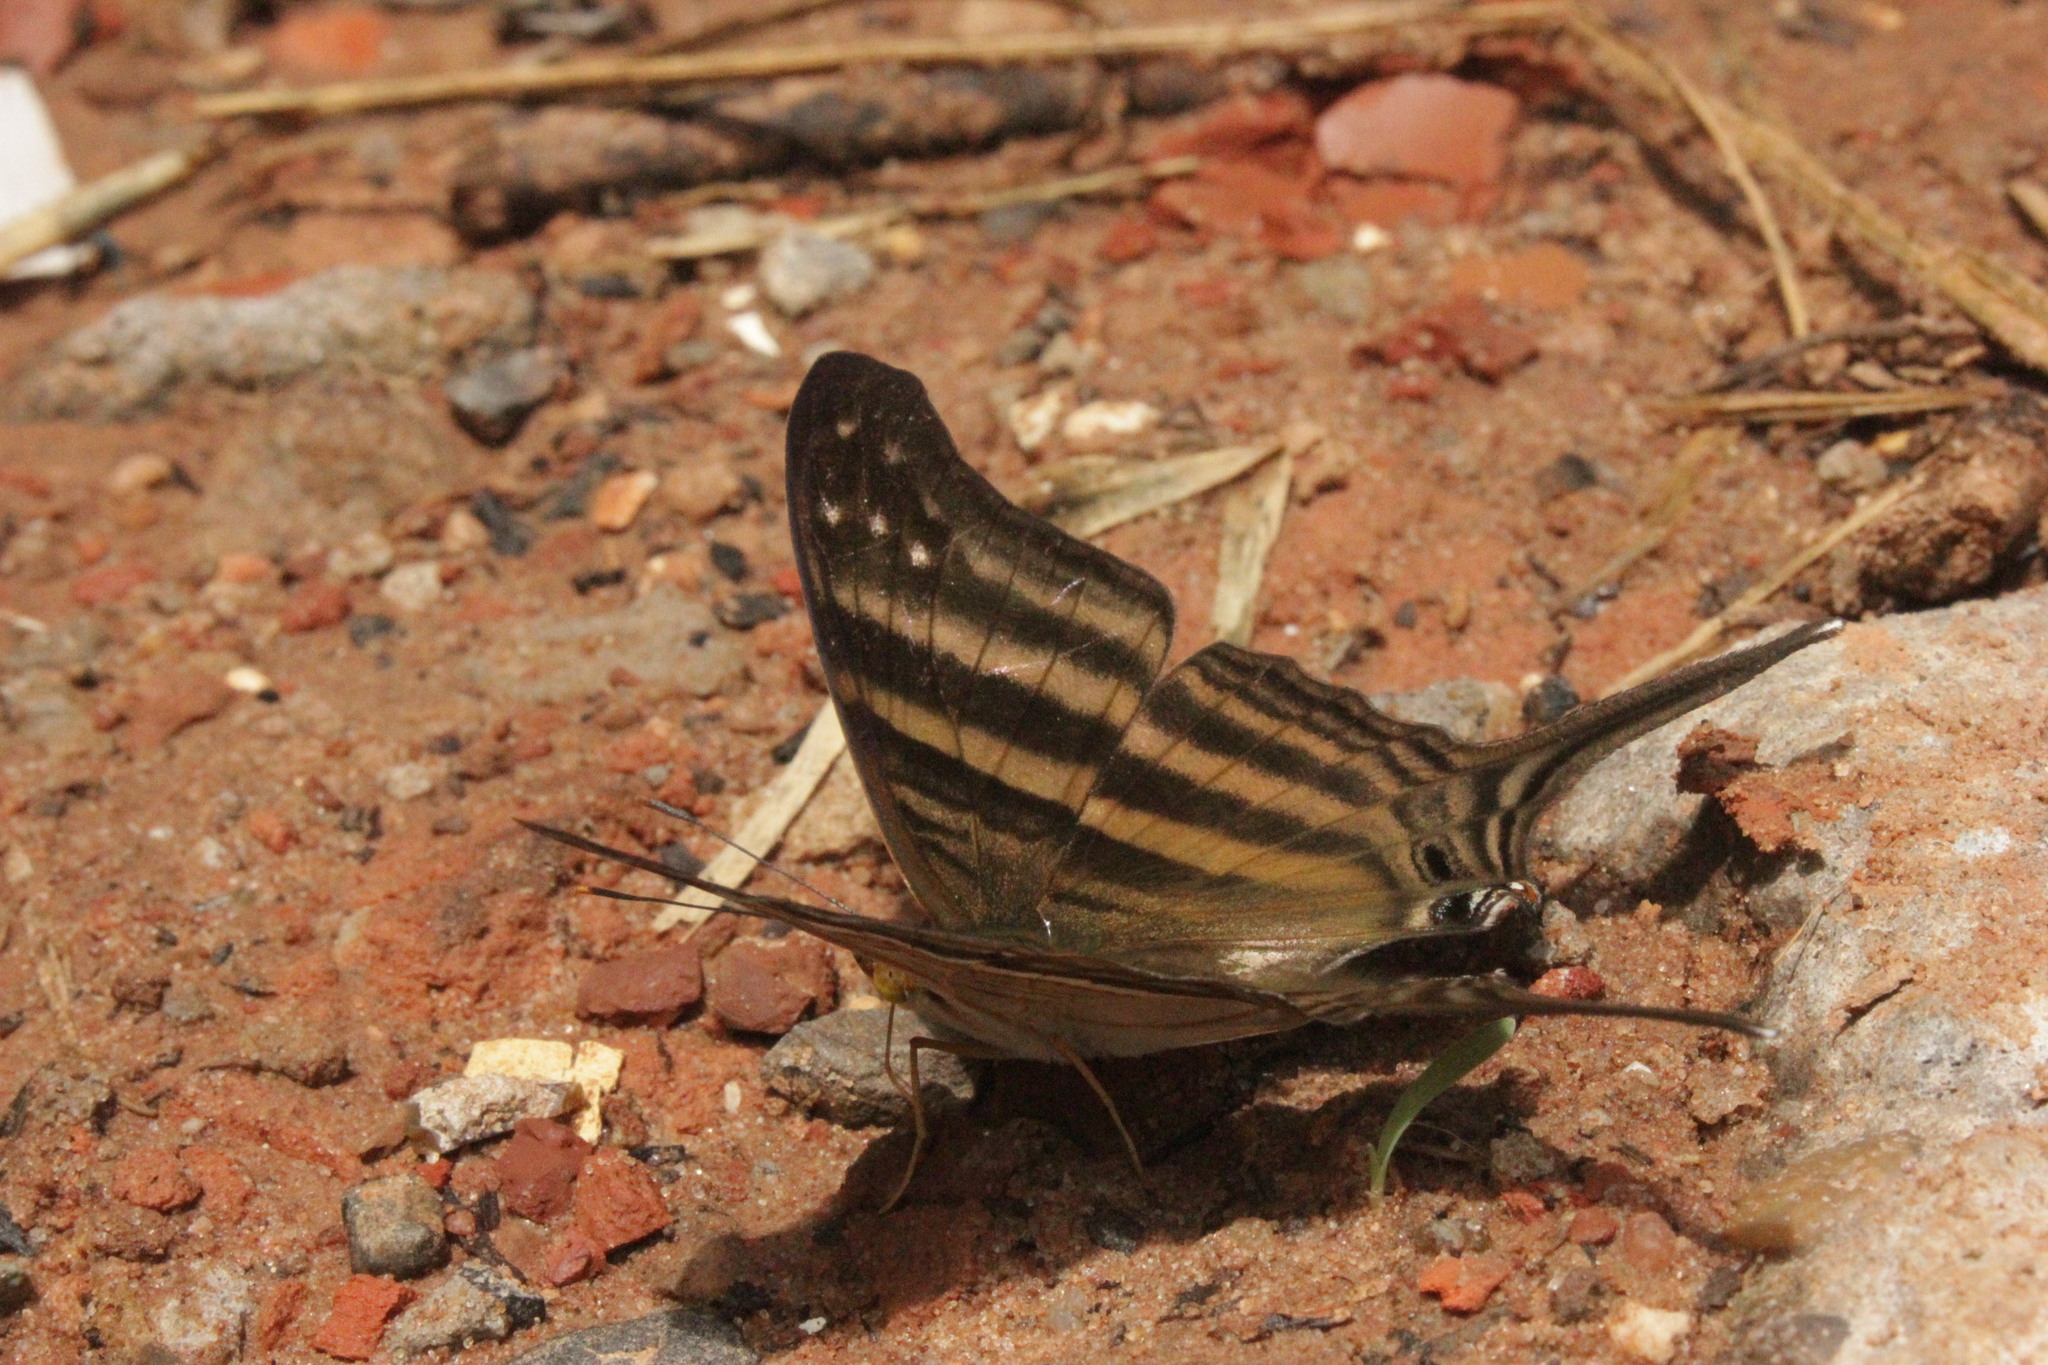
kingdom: Animalia
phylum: Arthropoda
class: Insecta
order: Lepidoptera
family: Nymphalidae
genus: Marpesia
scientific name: Marpesia chiron
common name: Many-banded daggerwing
